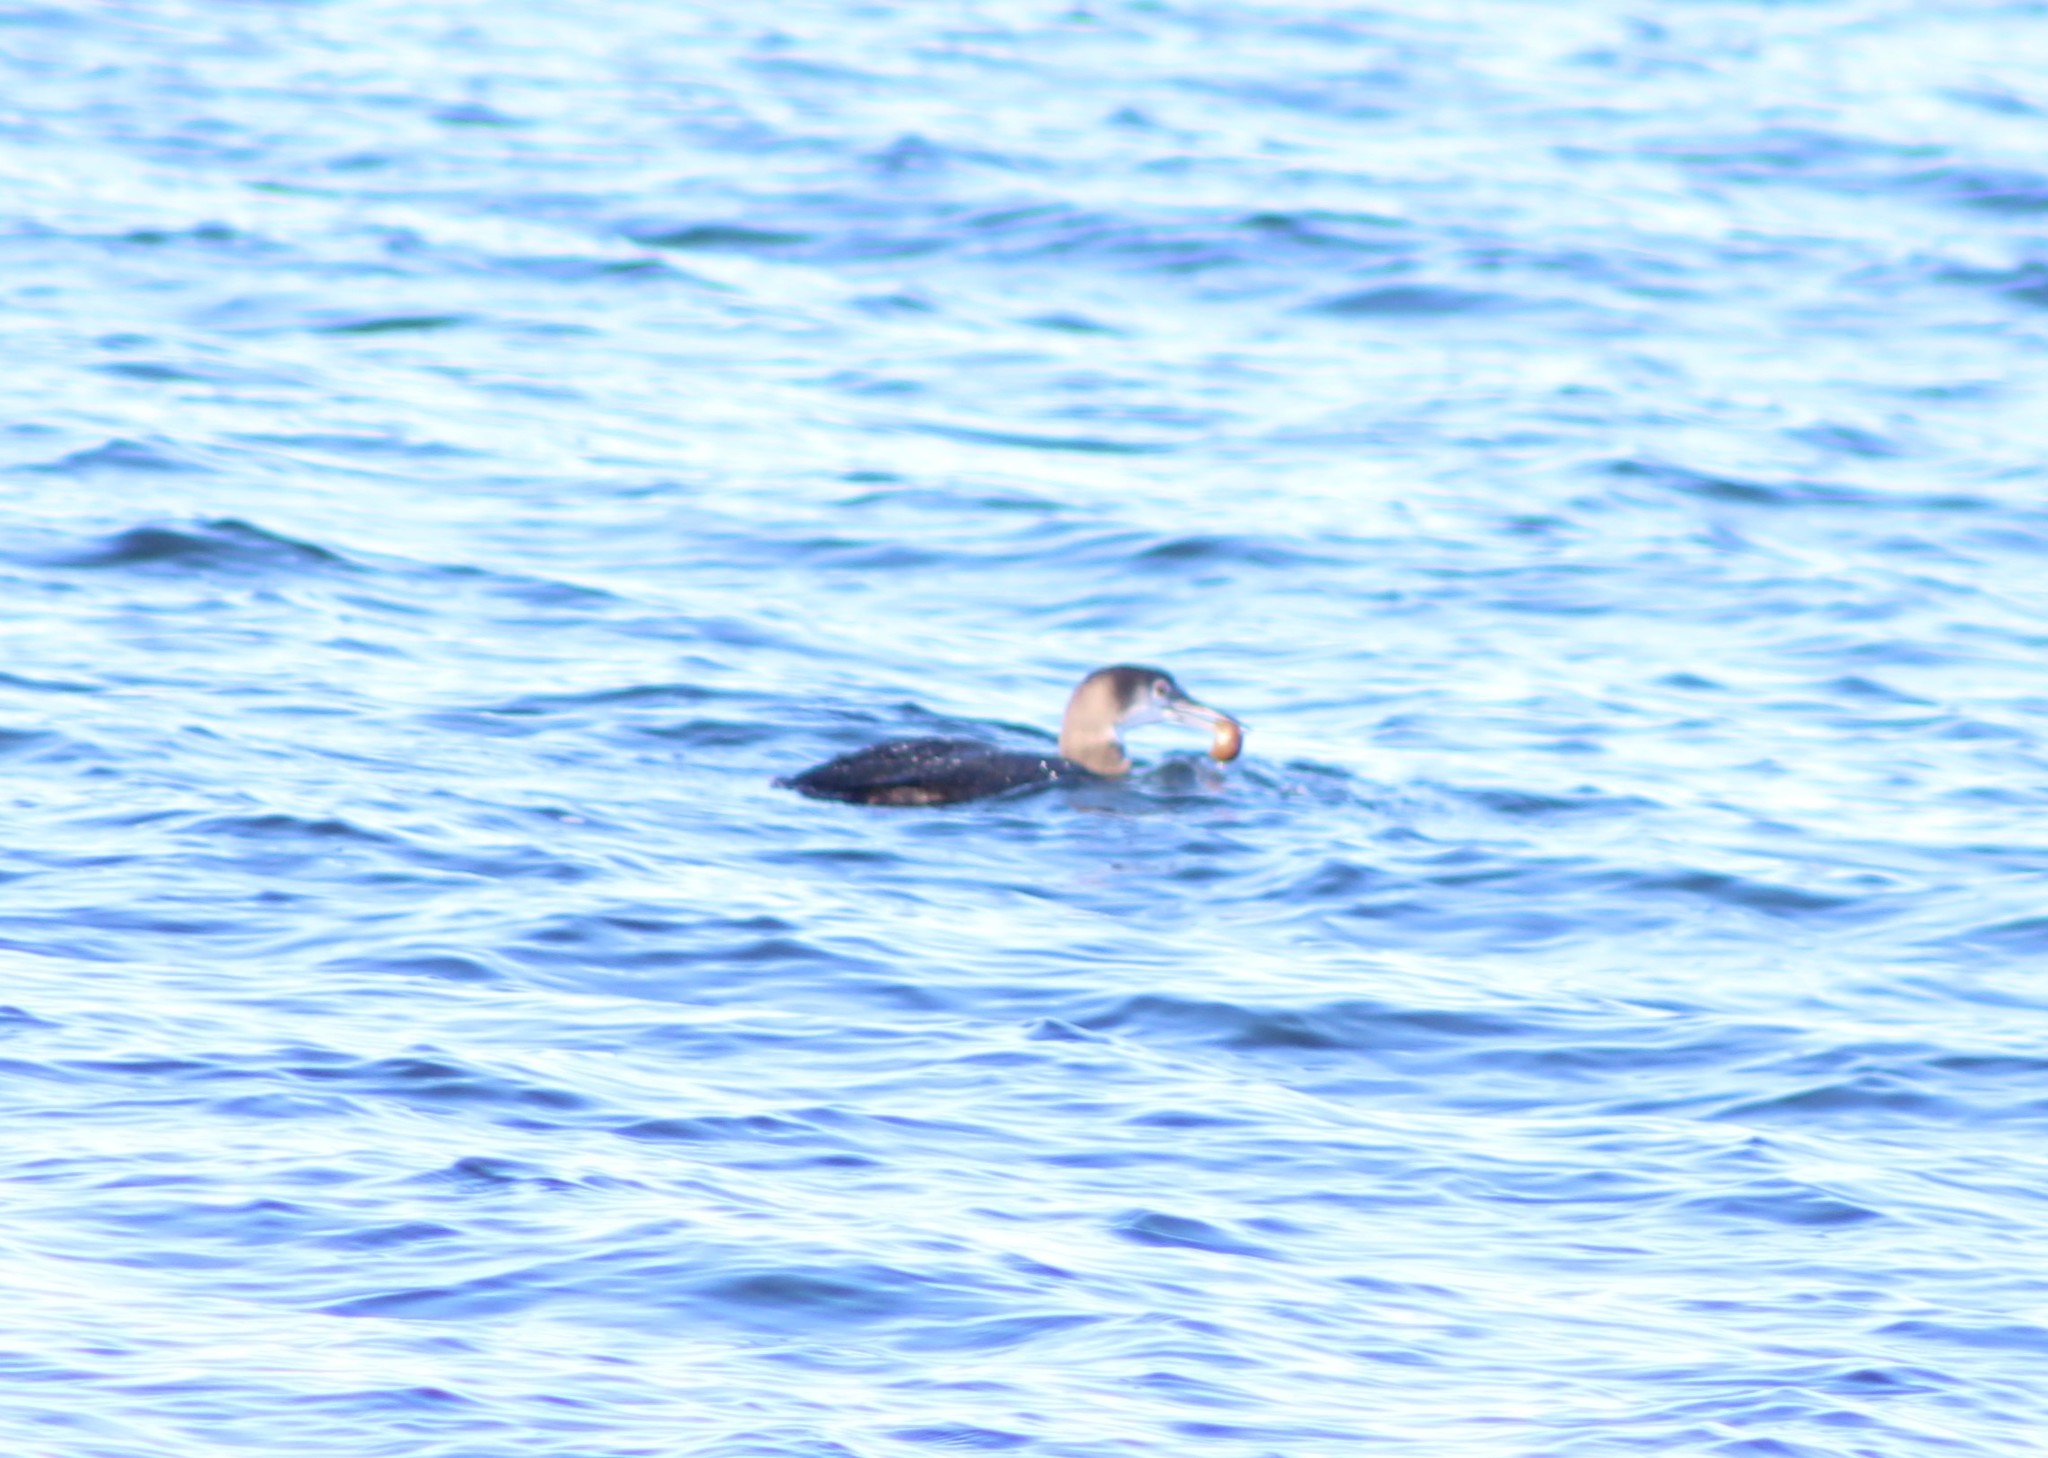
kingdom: Animalia
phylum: Chordata
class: Aves
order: Gaviiformes
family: Gaviidae
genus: Gavia
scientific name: Gavia immer
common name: Common loon
